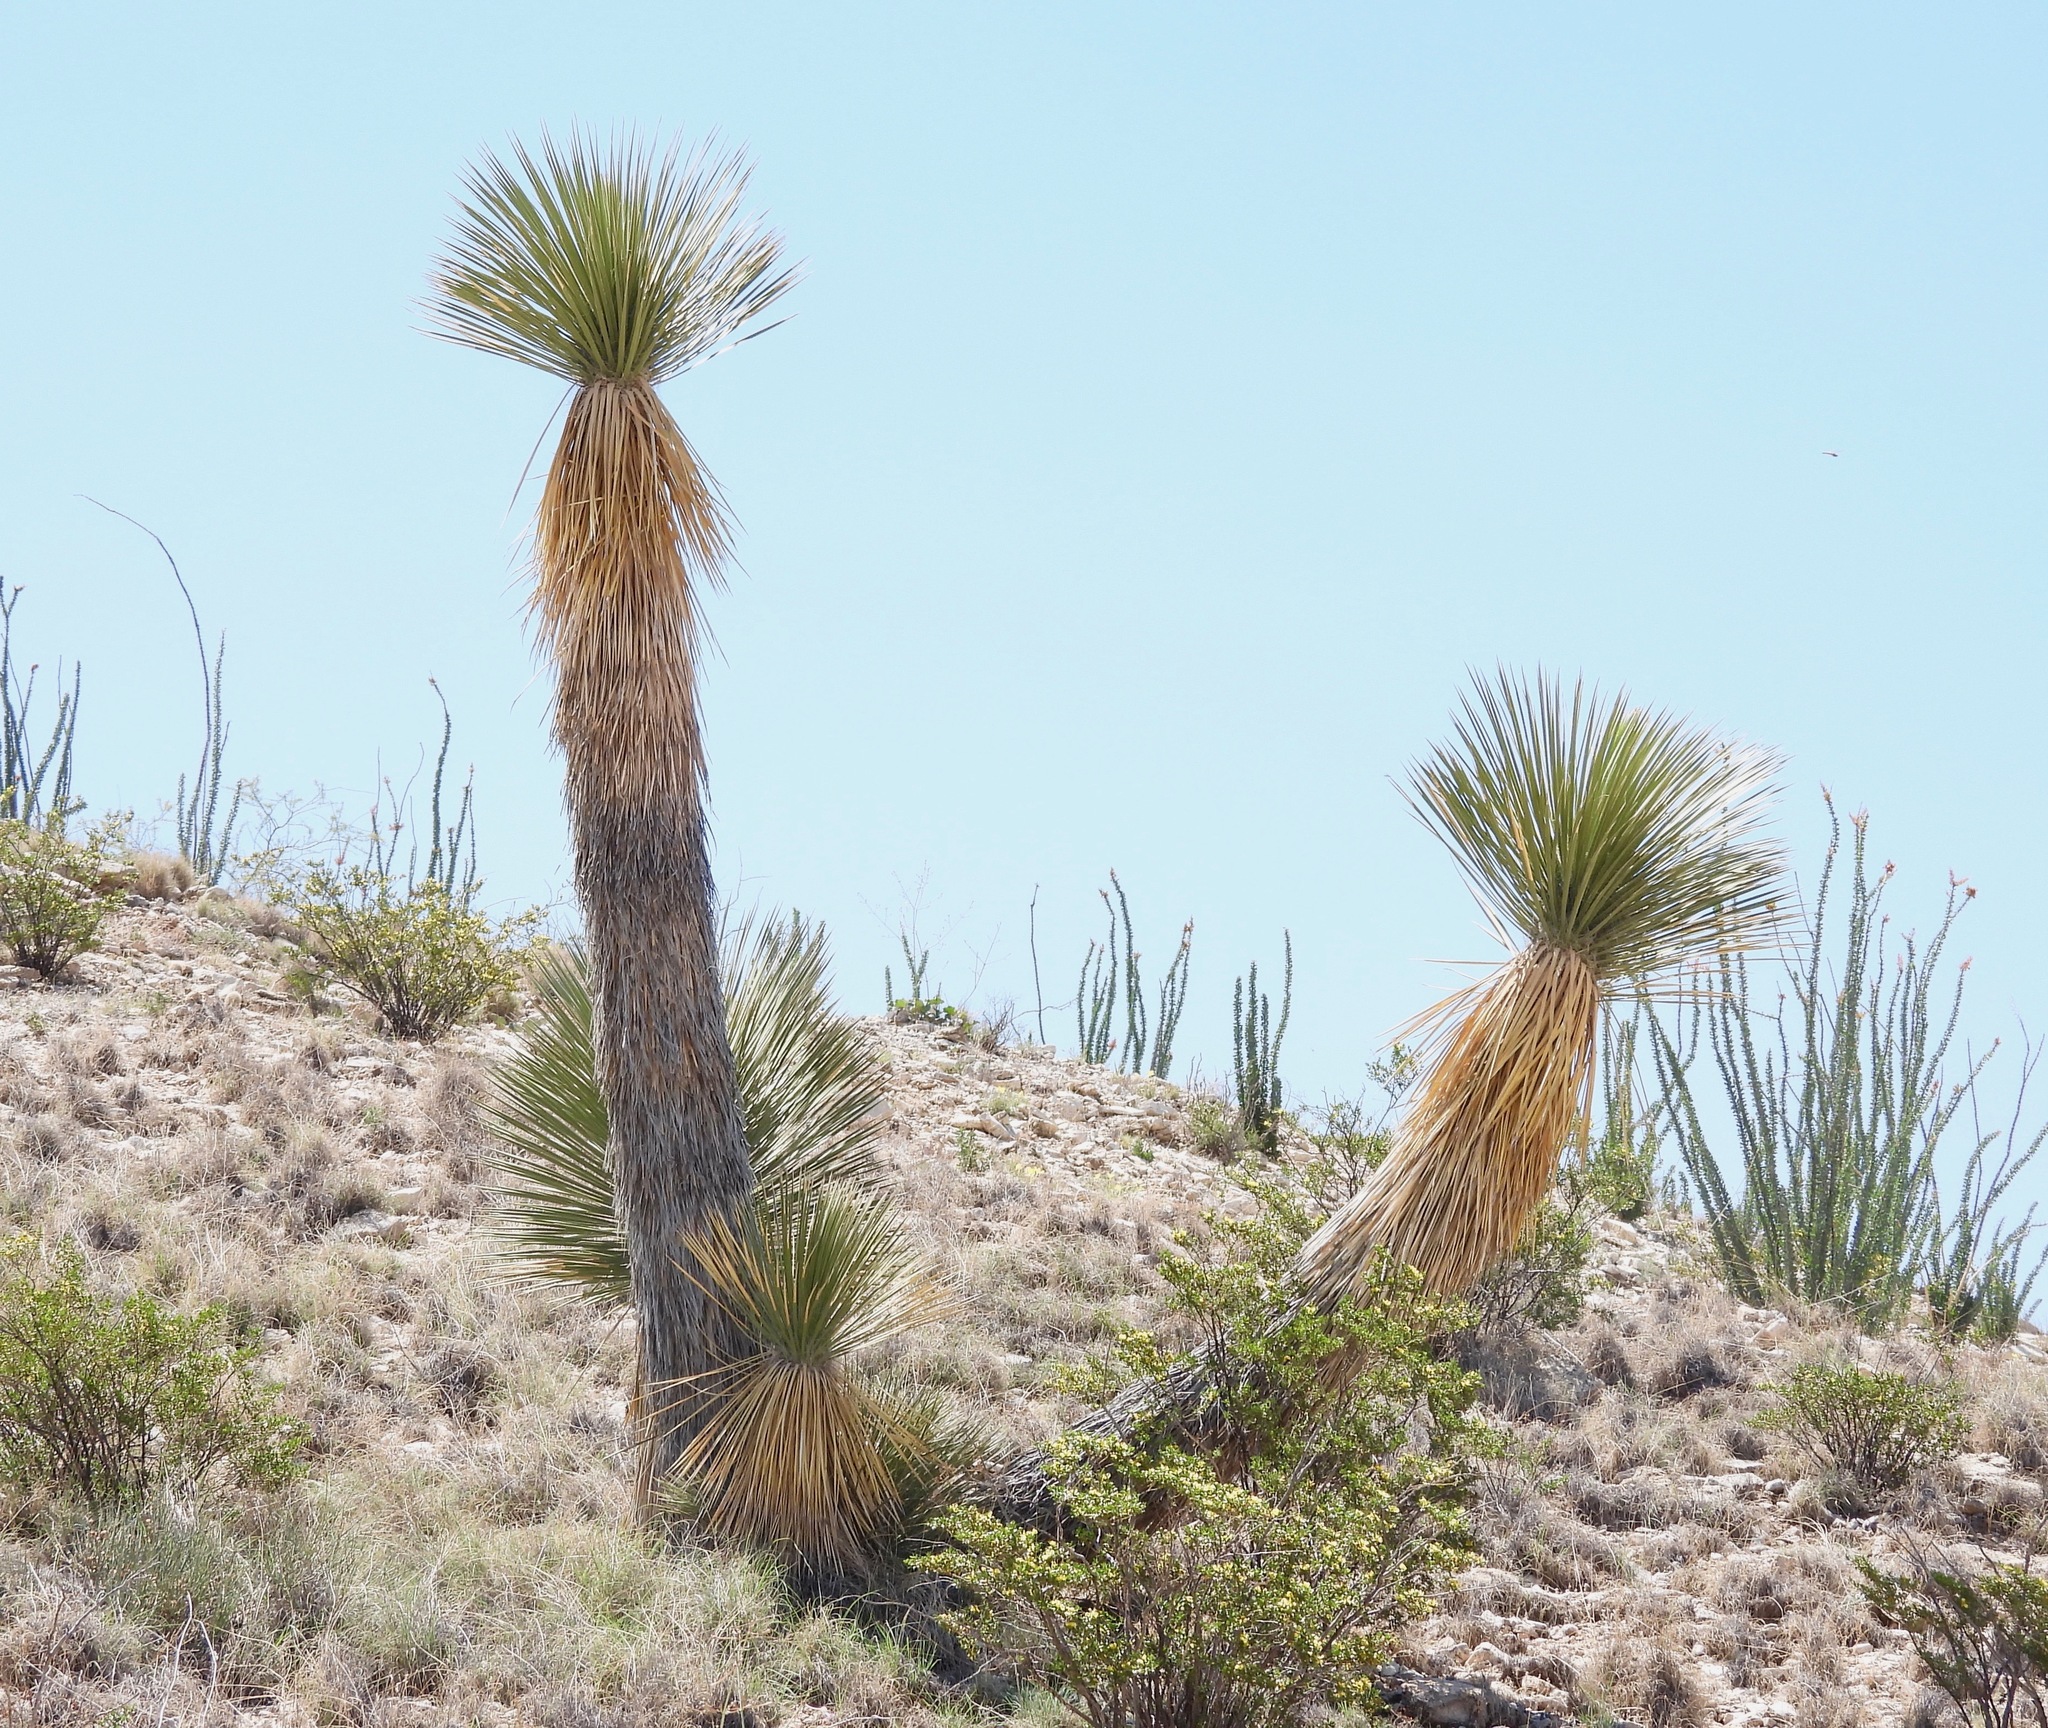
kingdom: Plantae
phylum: Tracheophyta
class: Liliopsida
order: Asparagales
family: Asparagaceae
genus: Yucca
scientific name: Yucca elata
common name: Palmella
